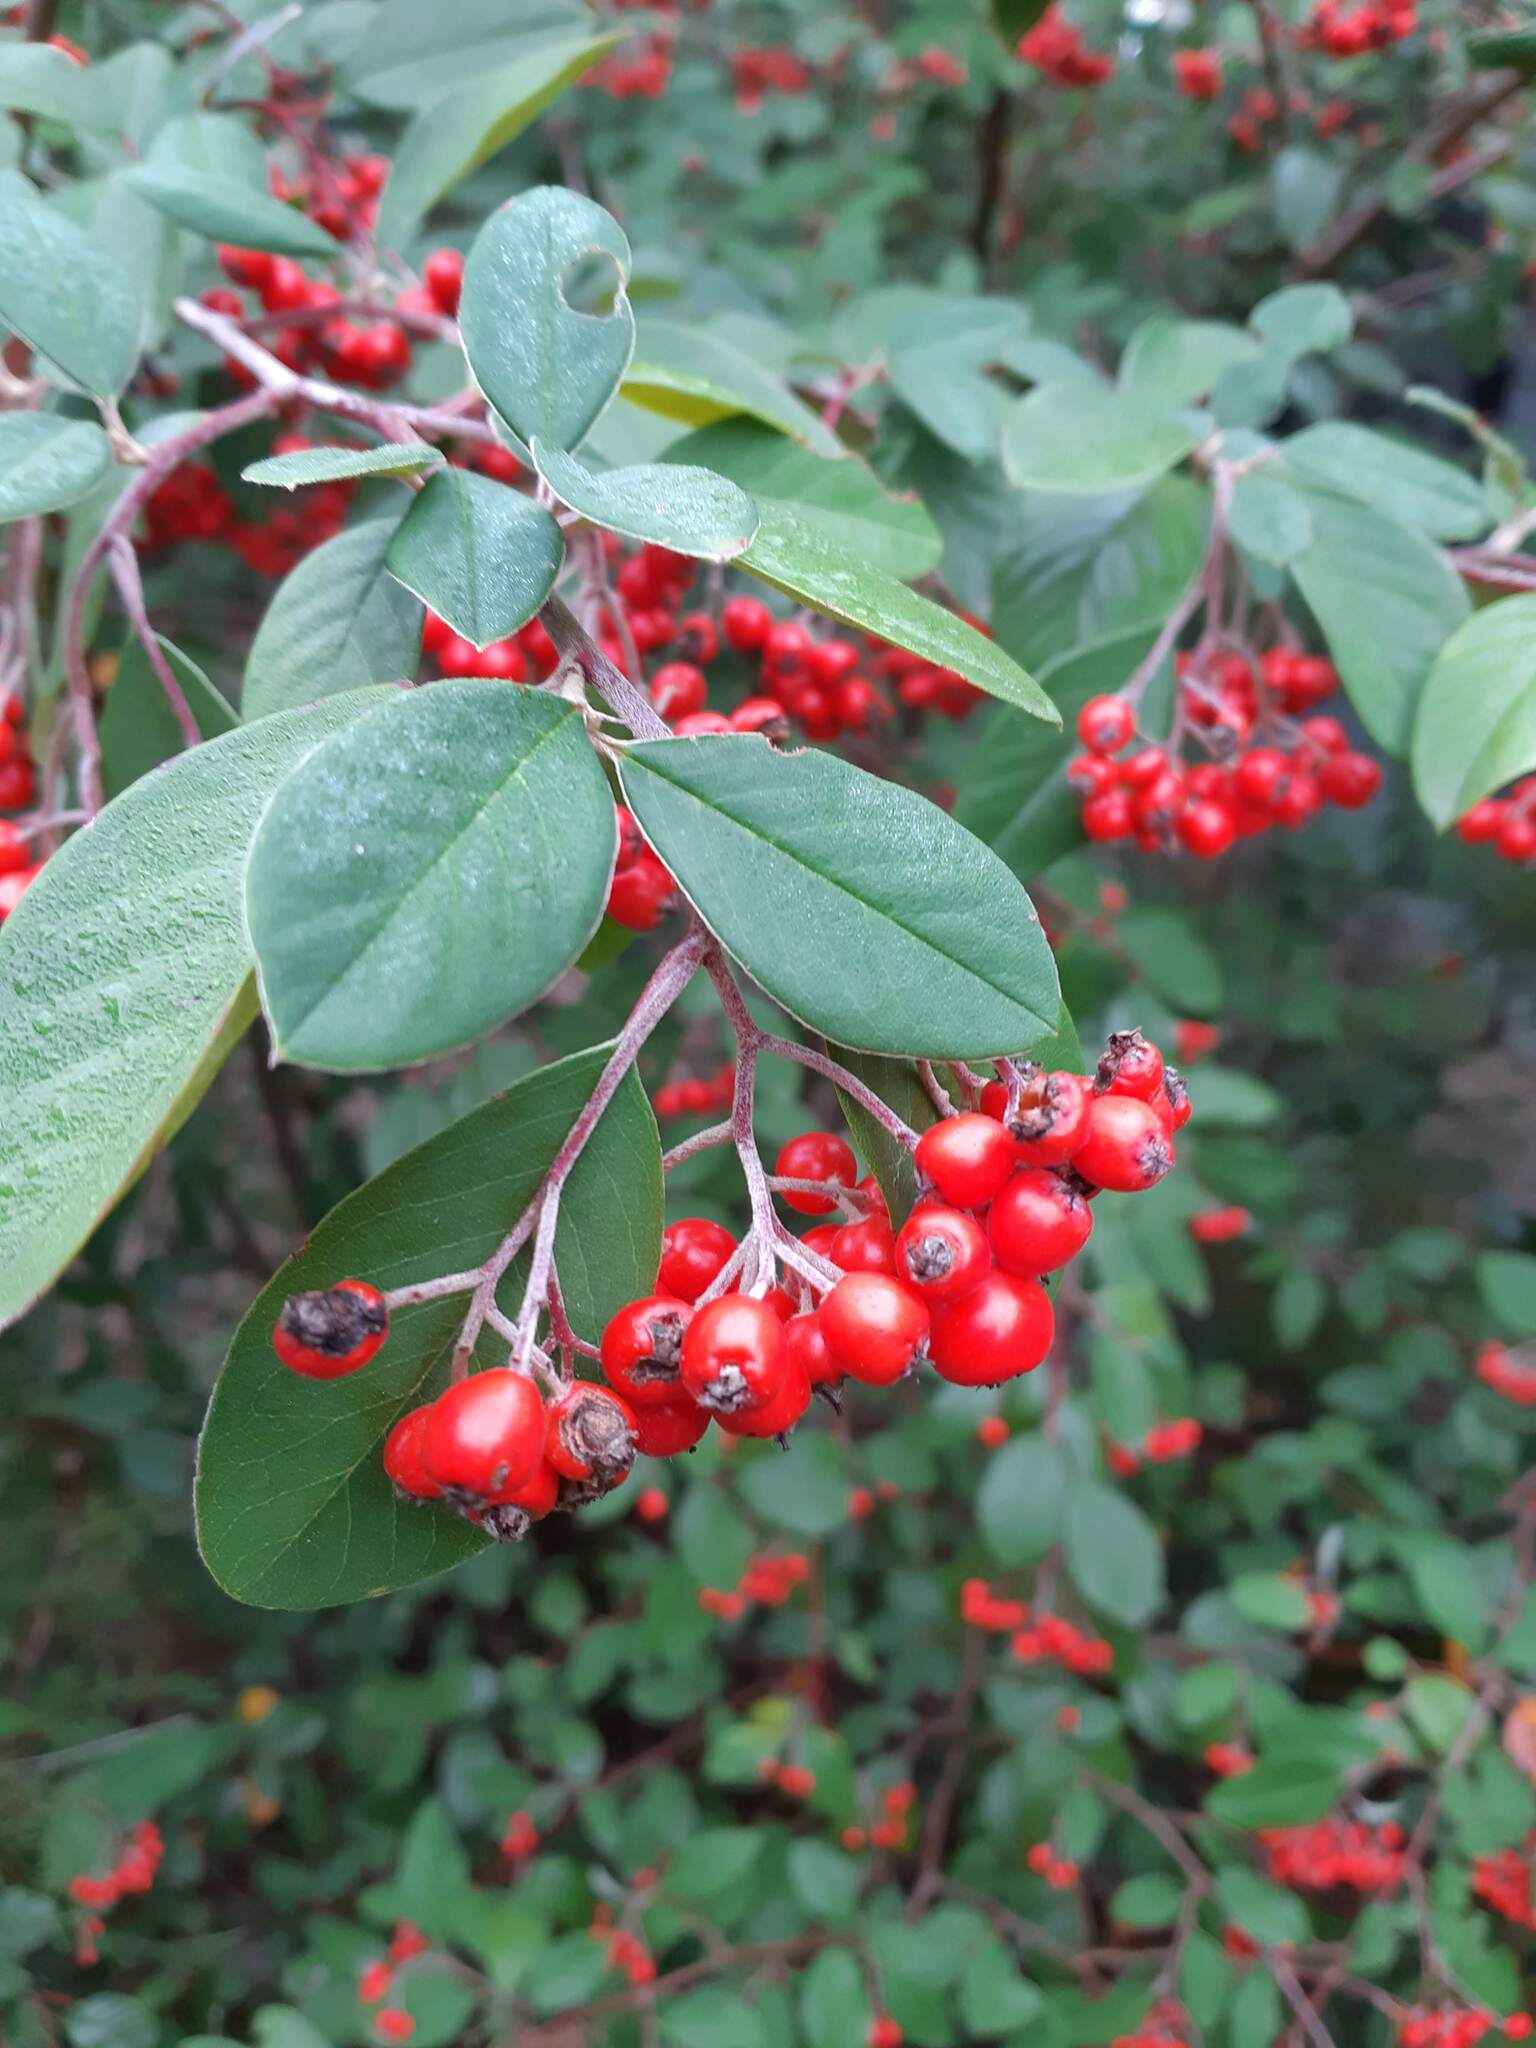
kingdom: Plantae
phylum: Tracheophyta
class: Magnoliopsida
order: Rosales
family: Rosaceae
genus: Cotoneaster
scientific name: Cotoneaster glaucophyllus
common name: Glaucous cotoneaster
